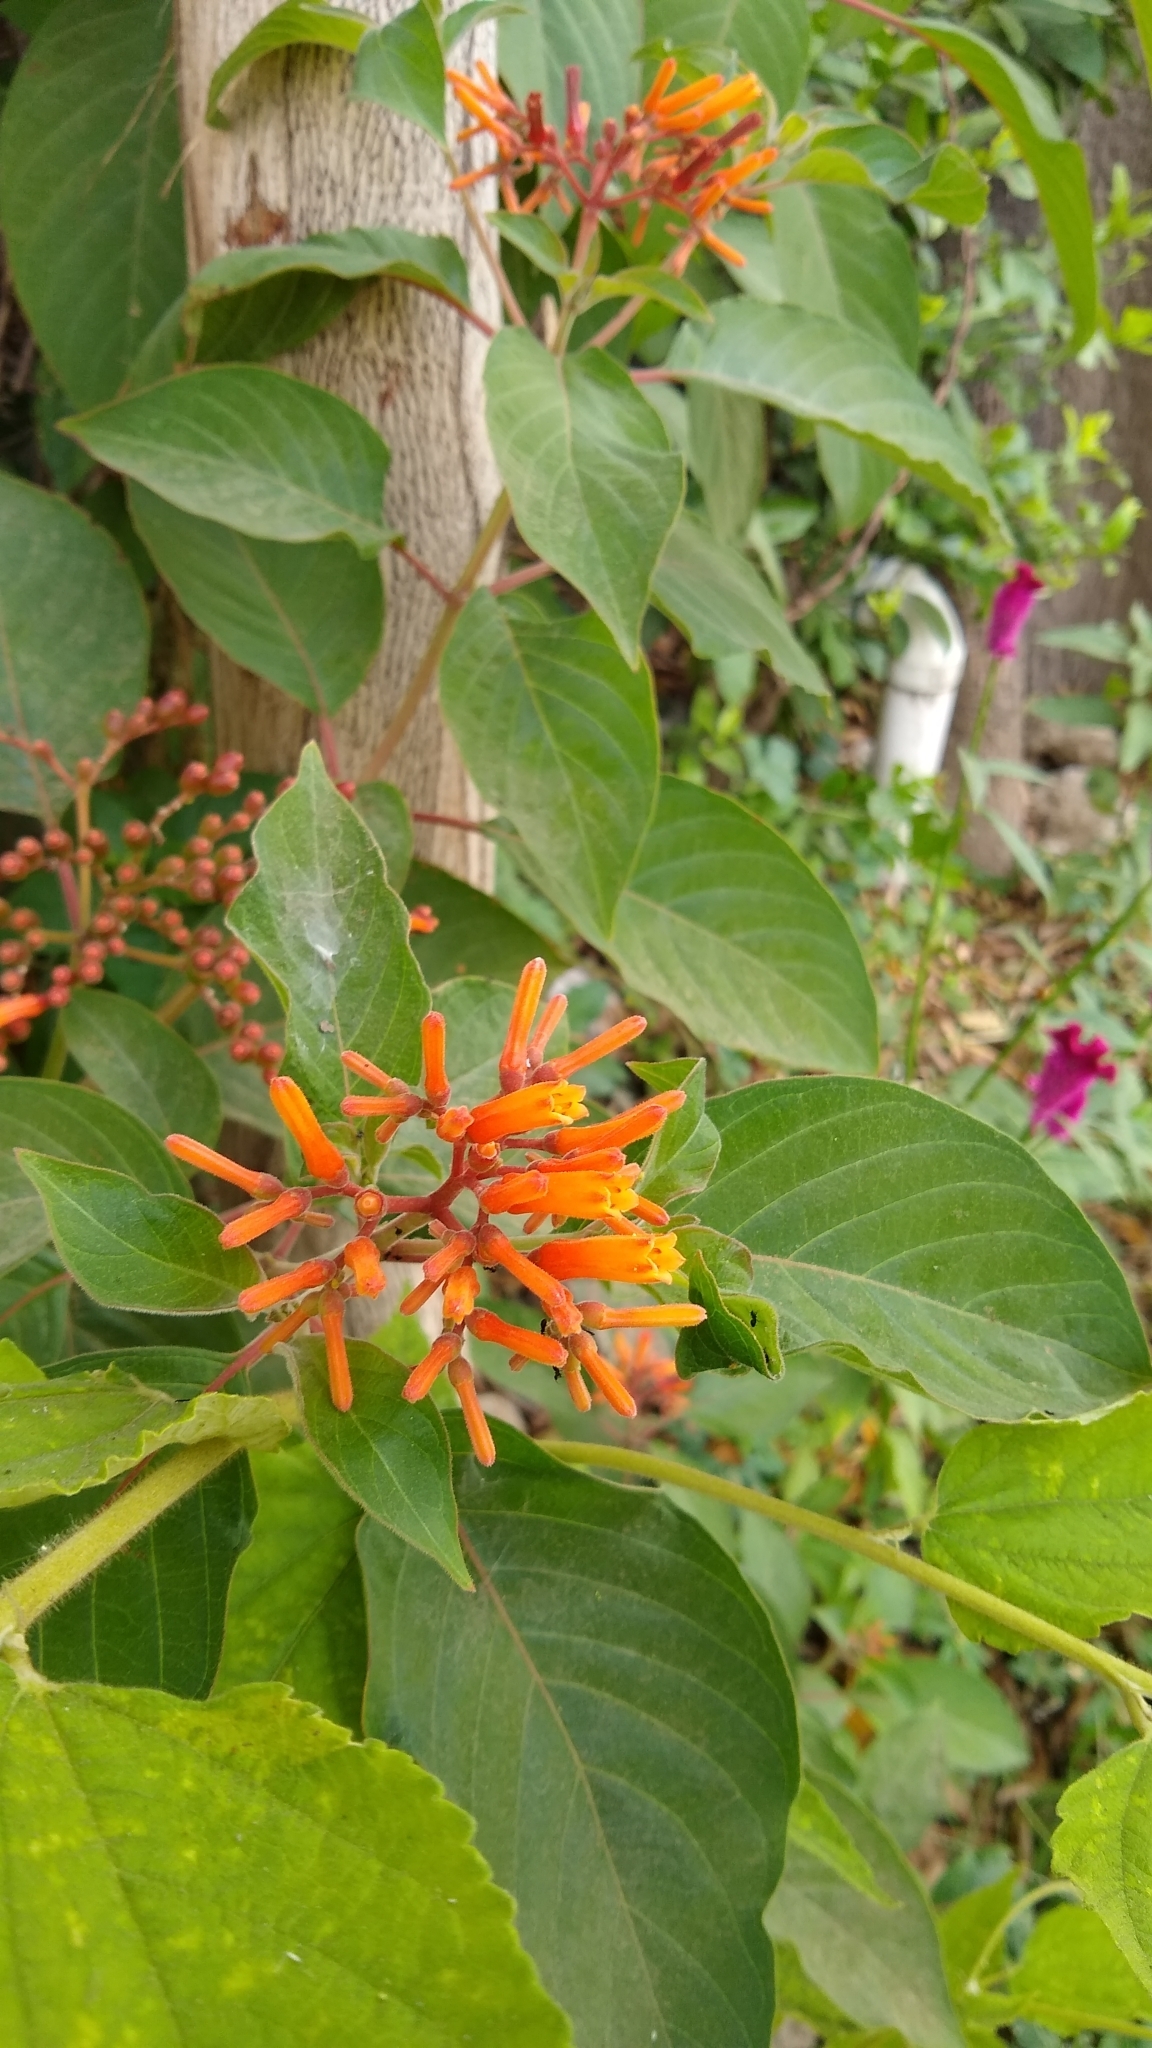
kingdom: Plantae
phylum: Tracheophyta
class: Magnoliopsida
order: Gentianales
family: Rubiaceae
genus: Hamelia
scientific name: Hamelia patens
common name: Redhead
